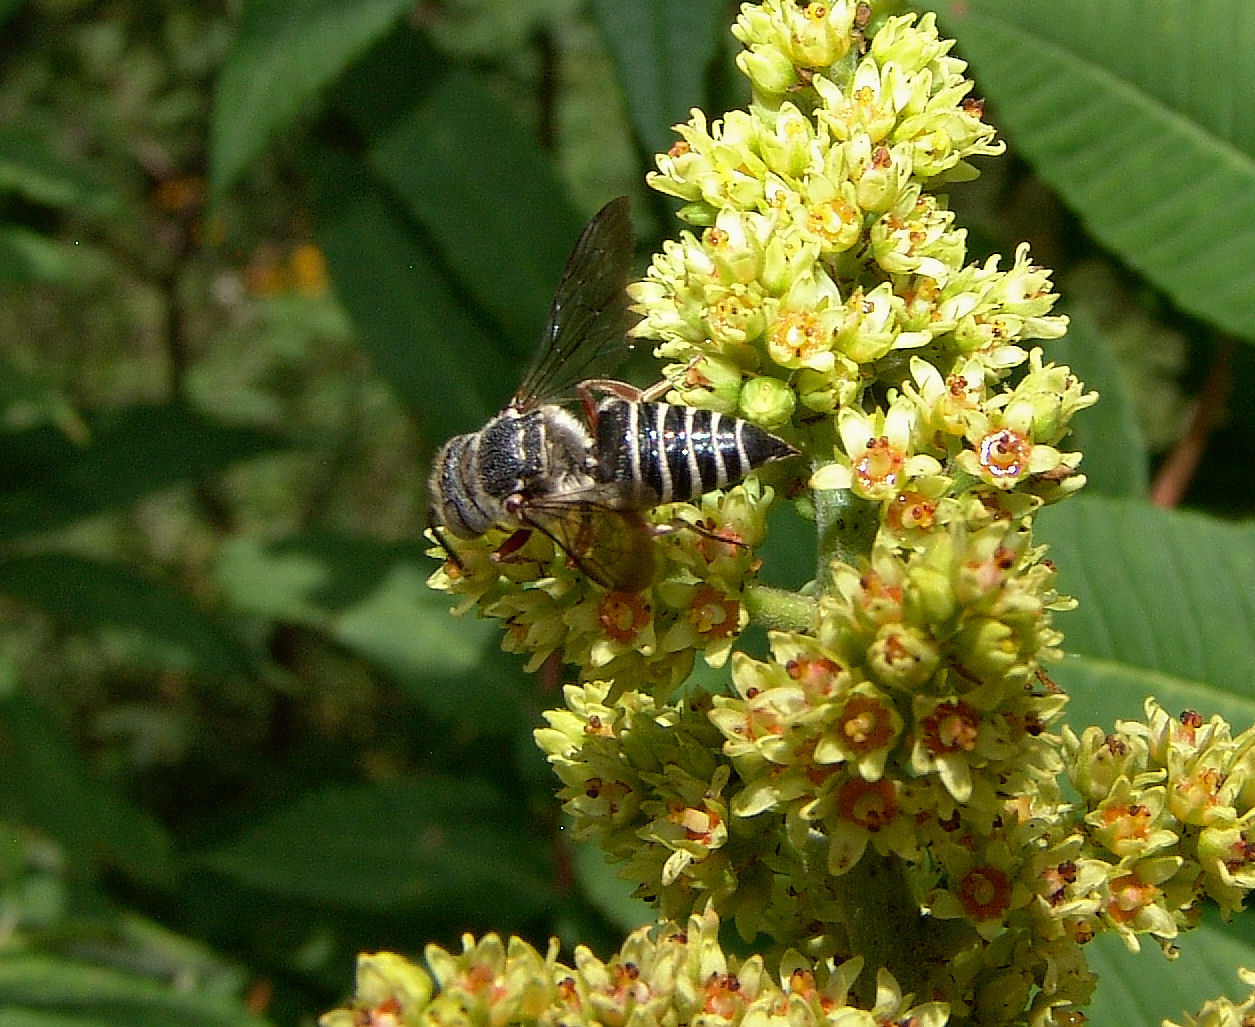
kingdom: Animalia
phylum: Arthropoda
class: Insecta
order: Hymenoptera
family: Megachilidae
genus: Coelioxys
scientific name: Coelioxys octodentatus
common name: Eight-toothed cuckoo leaf-cutter bee
